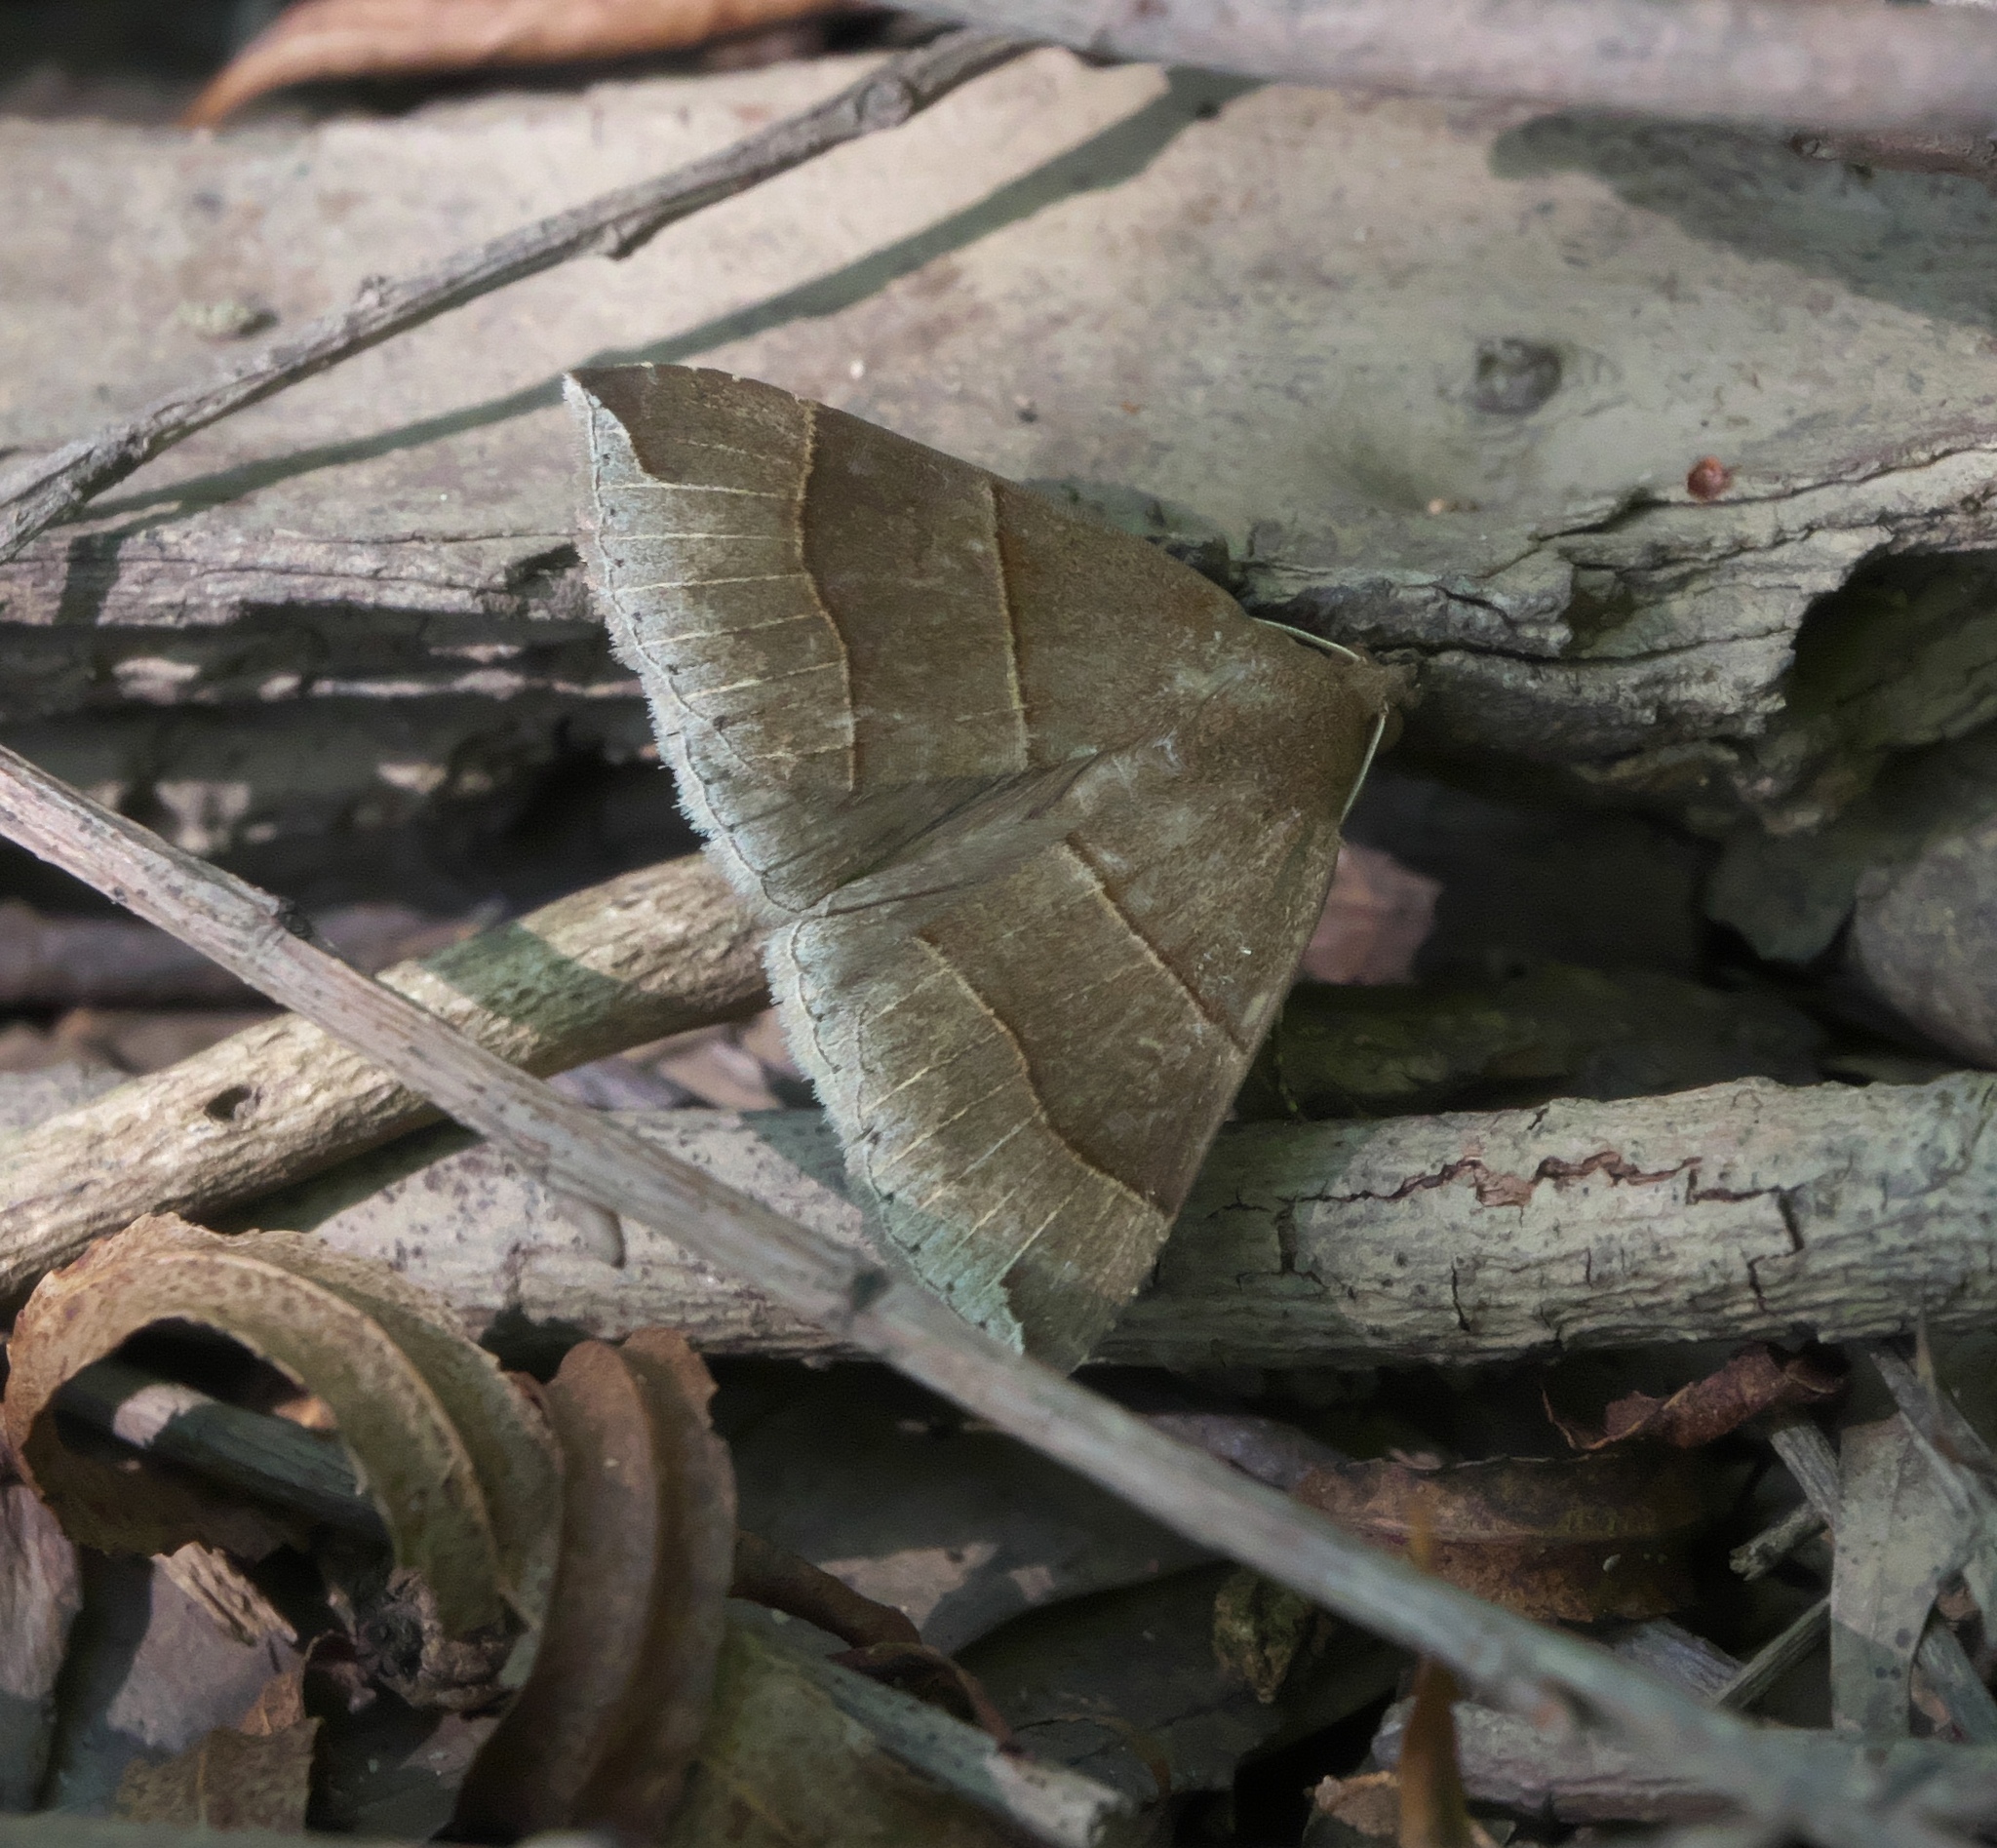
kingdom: Animalia
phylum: Arthropoda
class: Insecta
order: Lepidoptera
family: Erebidae
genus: Parallelia
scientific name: Parallelia bistriaris
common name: Maple looper moth
